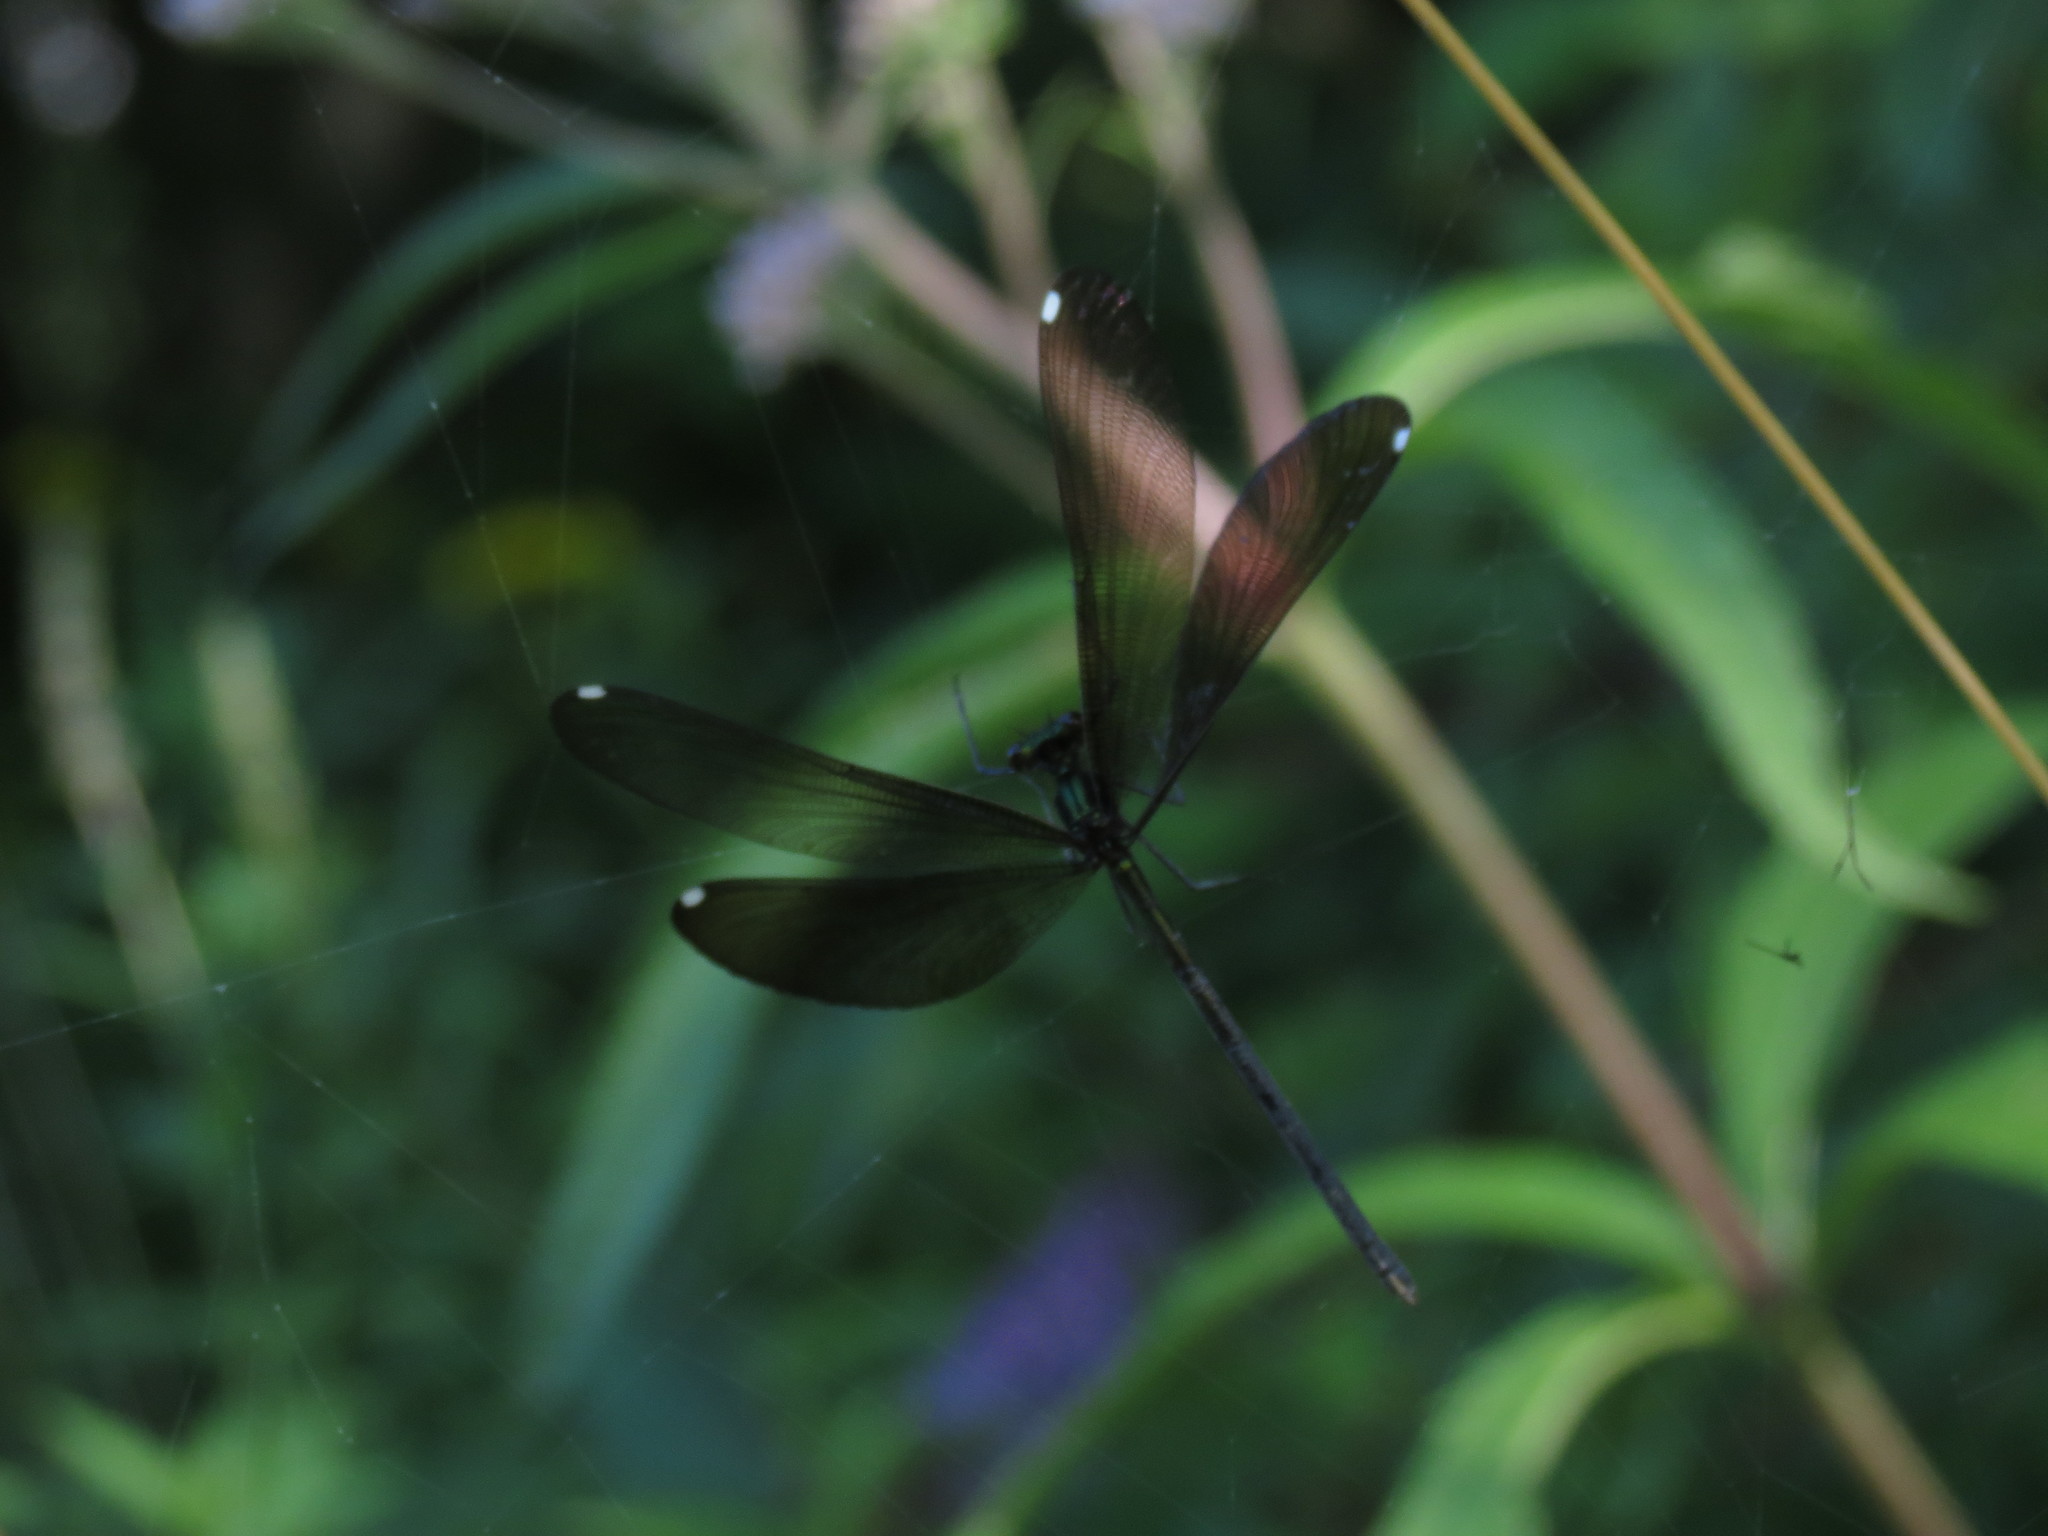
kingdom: Animalia
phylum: Arthropoda
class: Insecta
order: Odonata
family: Calopterygidae
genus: Calopteryx
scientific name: Calopteryx maculata
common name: Ebony jewelwing
